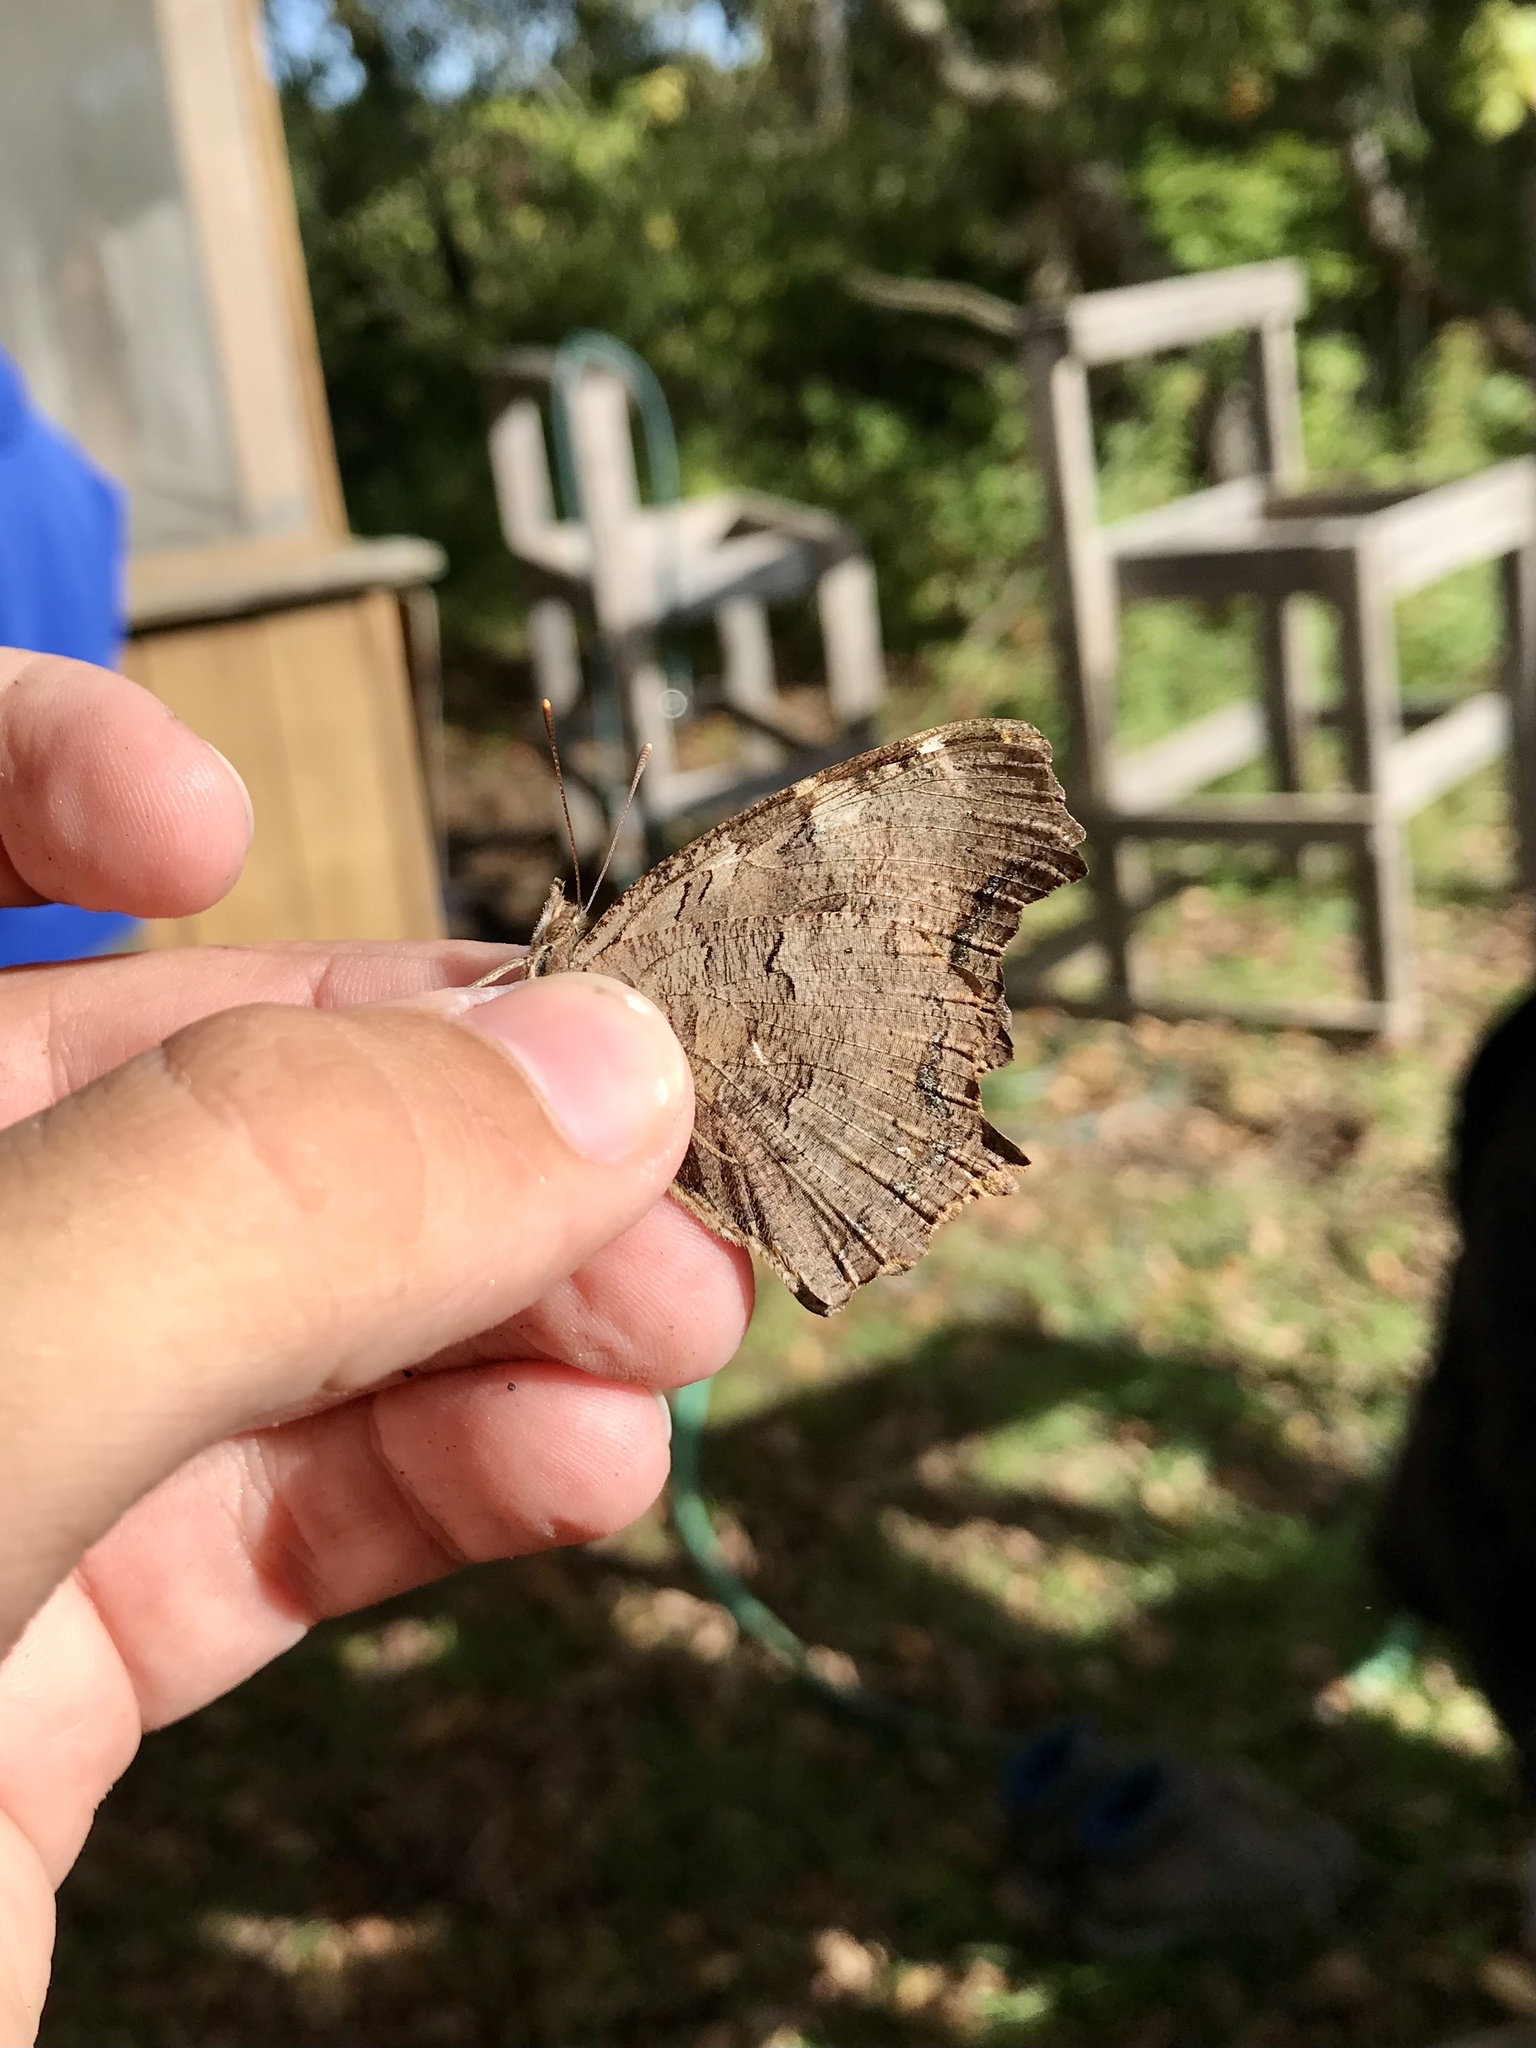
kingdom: Animalia
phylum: Arthropoda
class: Insecta
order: Lepidoptera
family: Nymphalidae
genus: Polygonia
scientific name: Polygonia vaualbum
